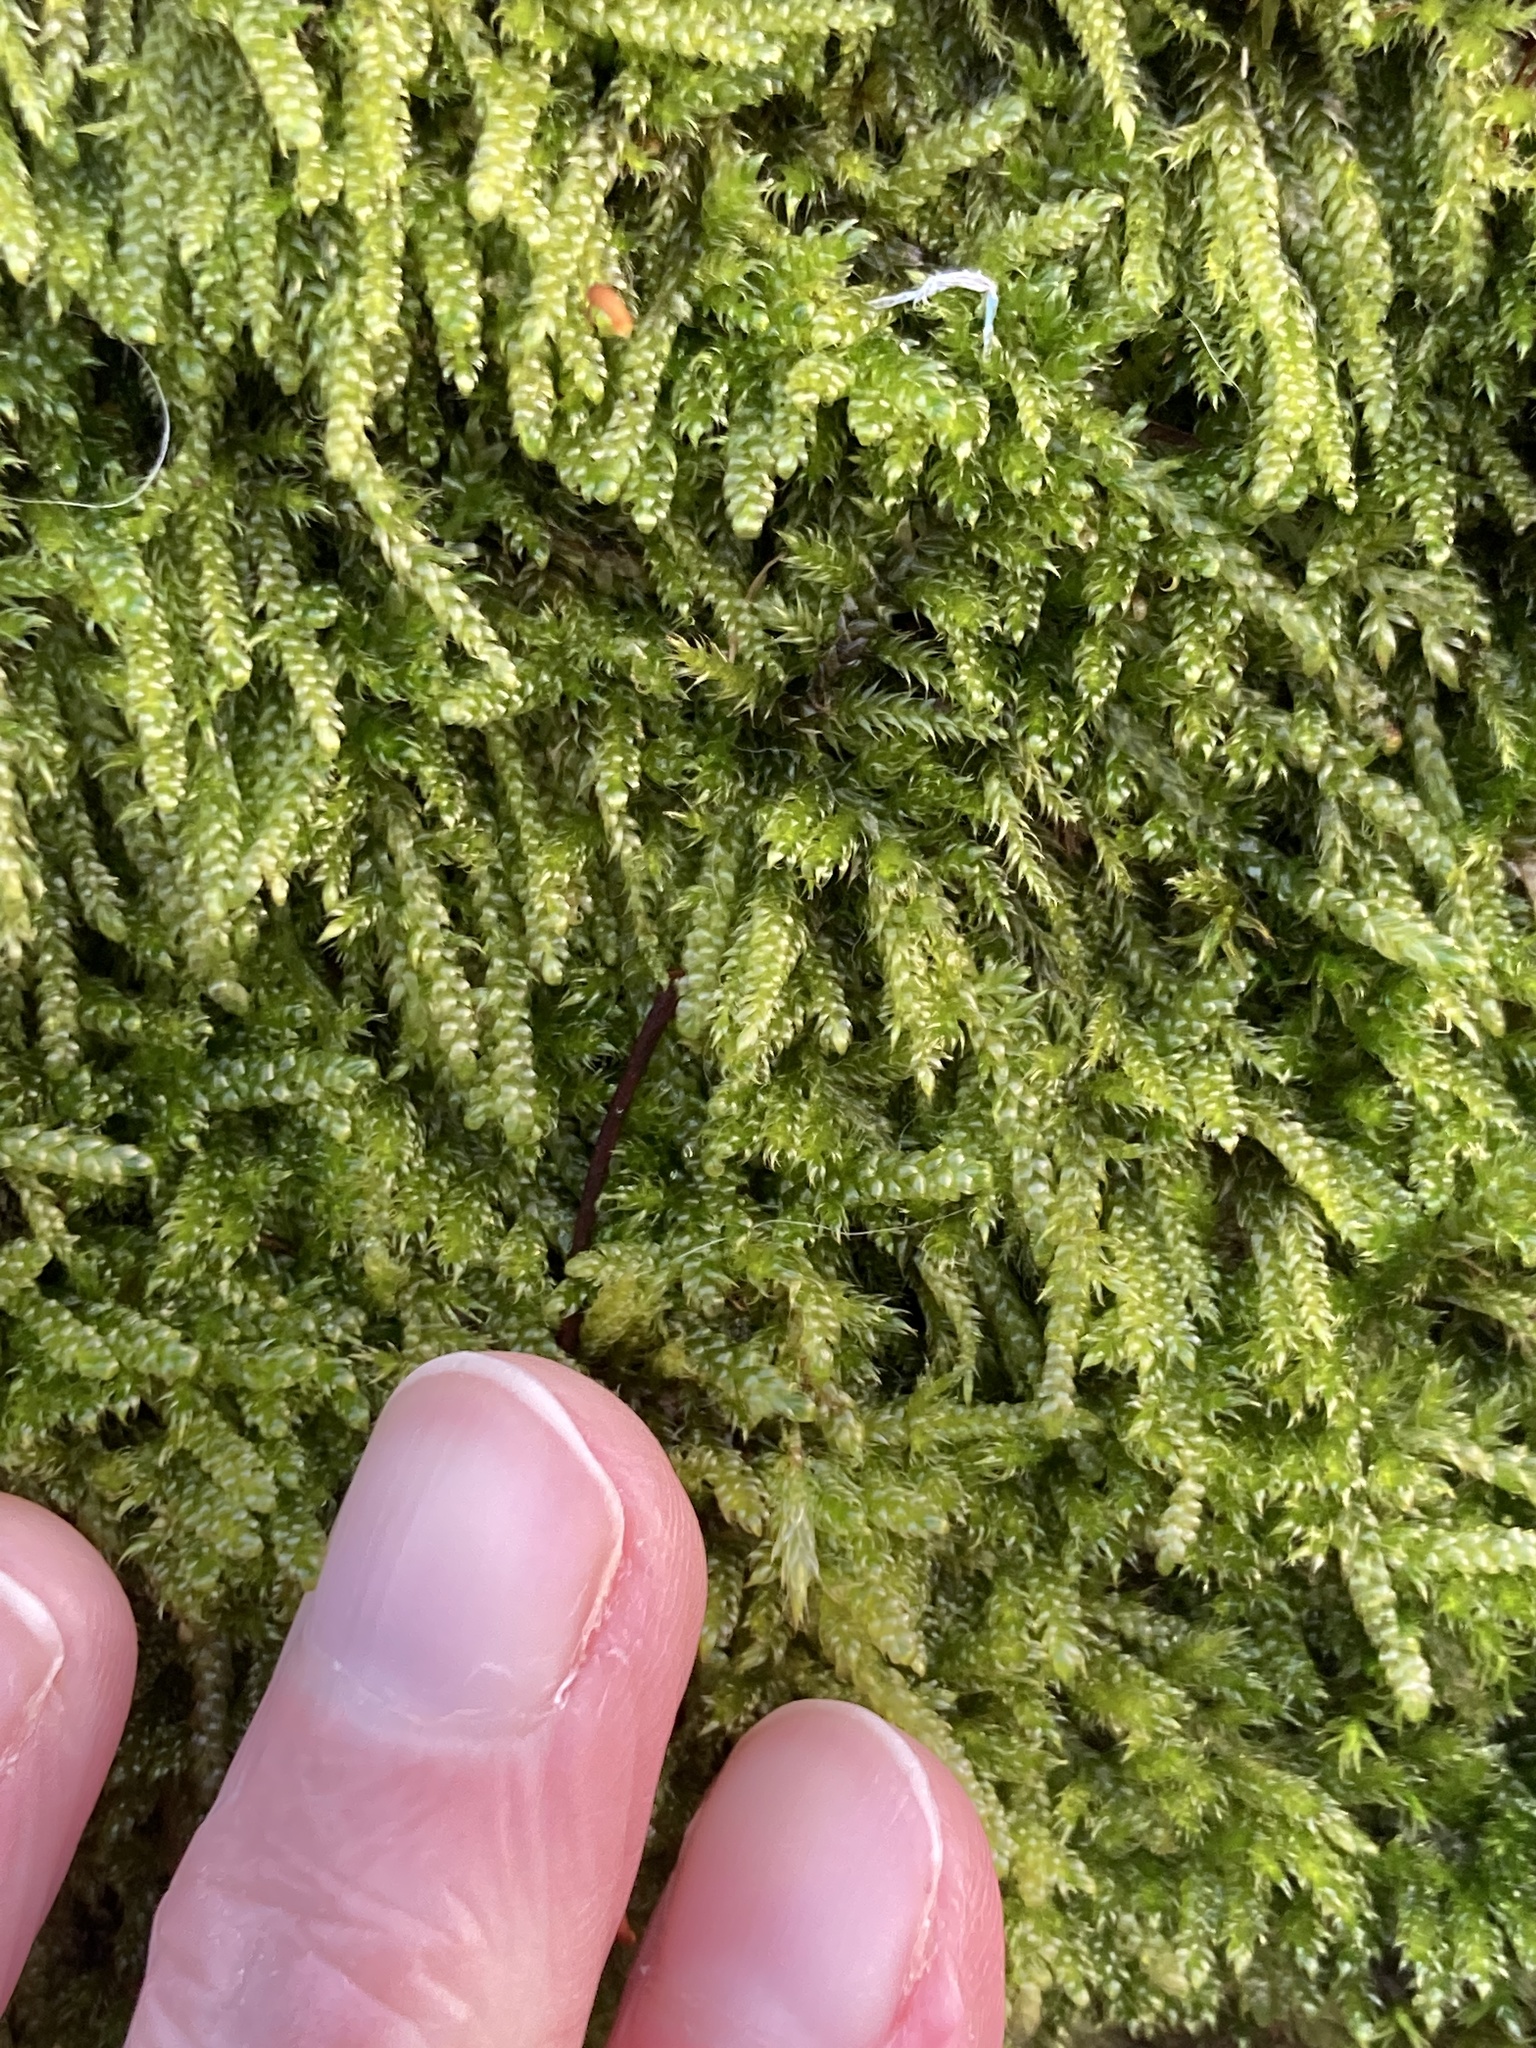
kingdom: Plantae
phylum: Bryophyta
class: Bryopsida
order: Hypnales
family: Hypnaceae
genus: Hypnum
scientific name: Hypnum cupressiforme
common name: Cypress-leaved plait-moss
